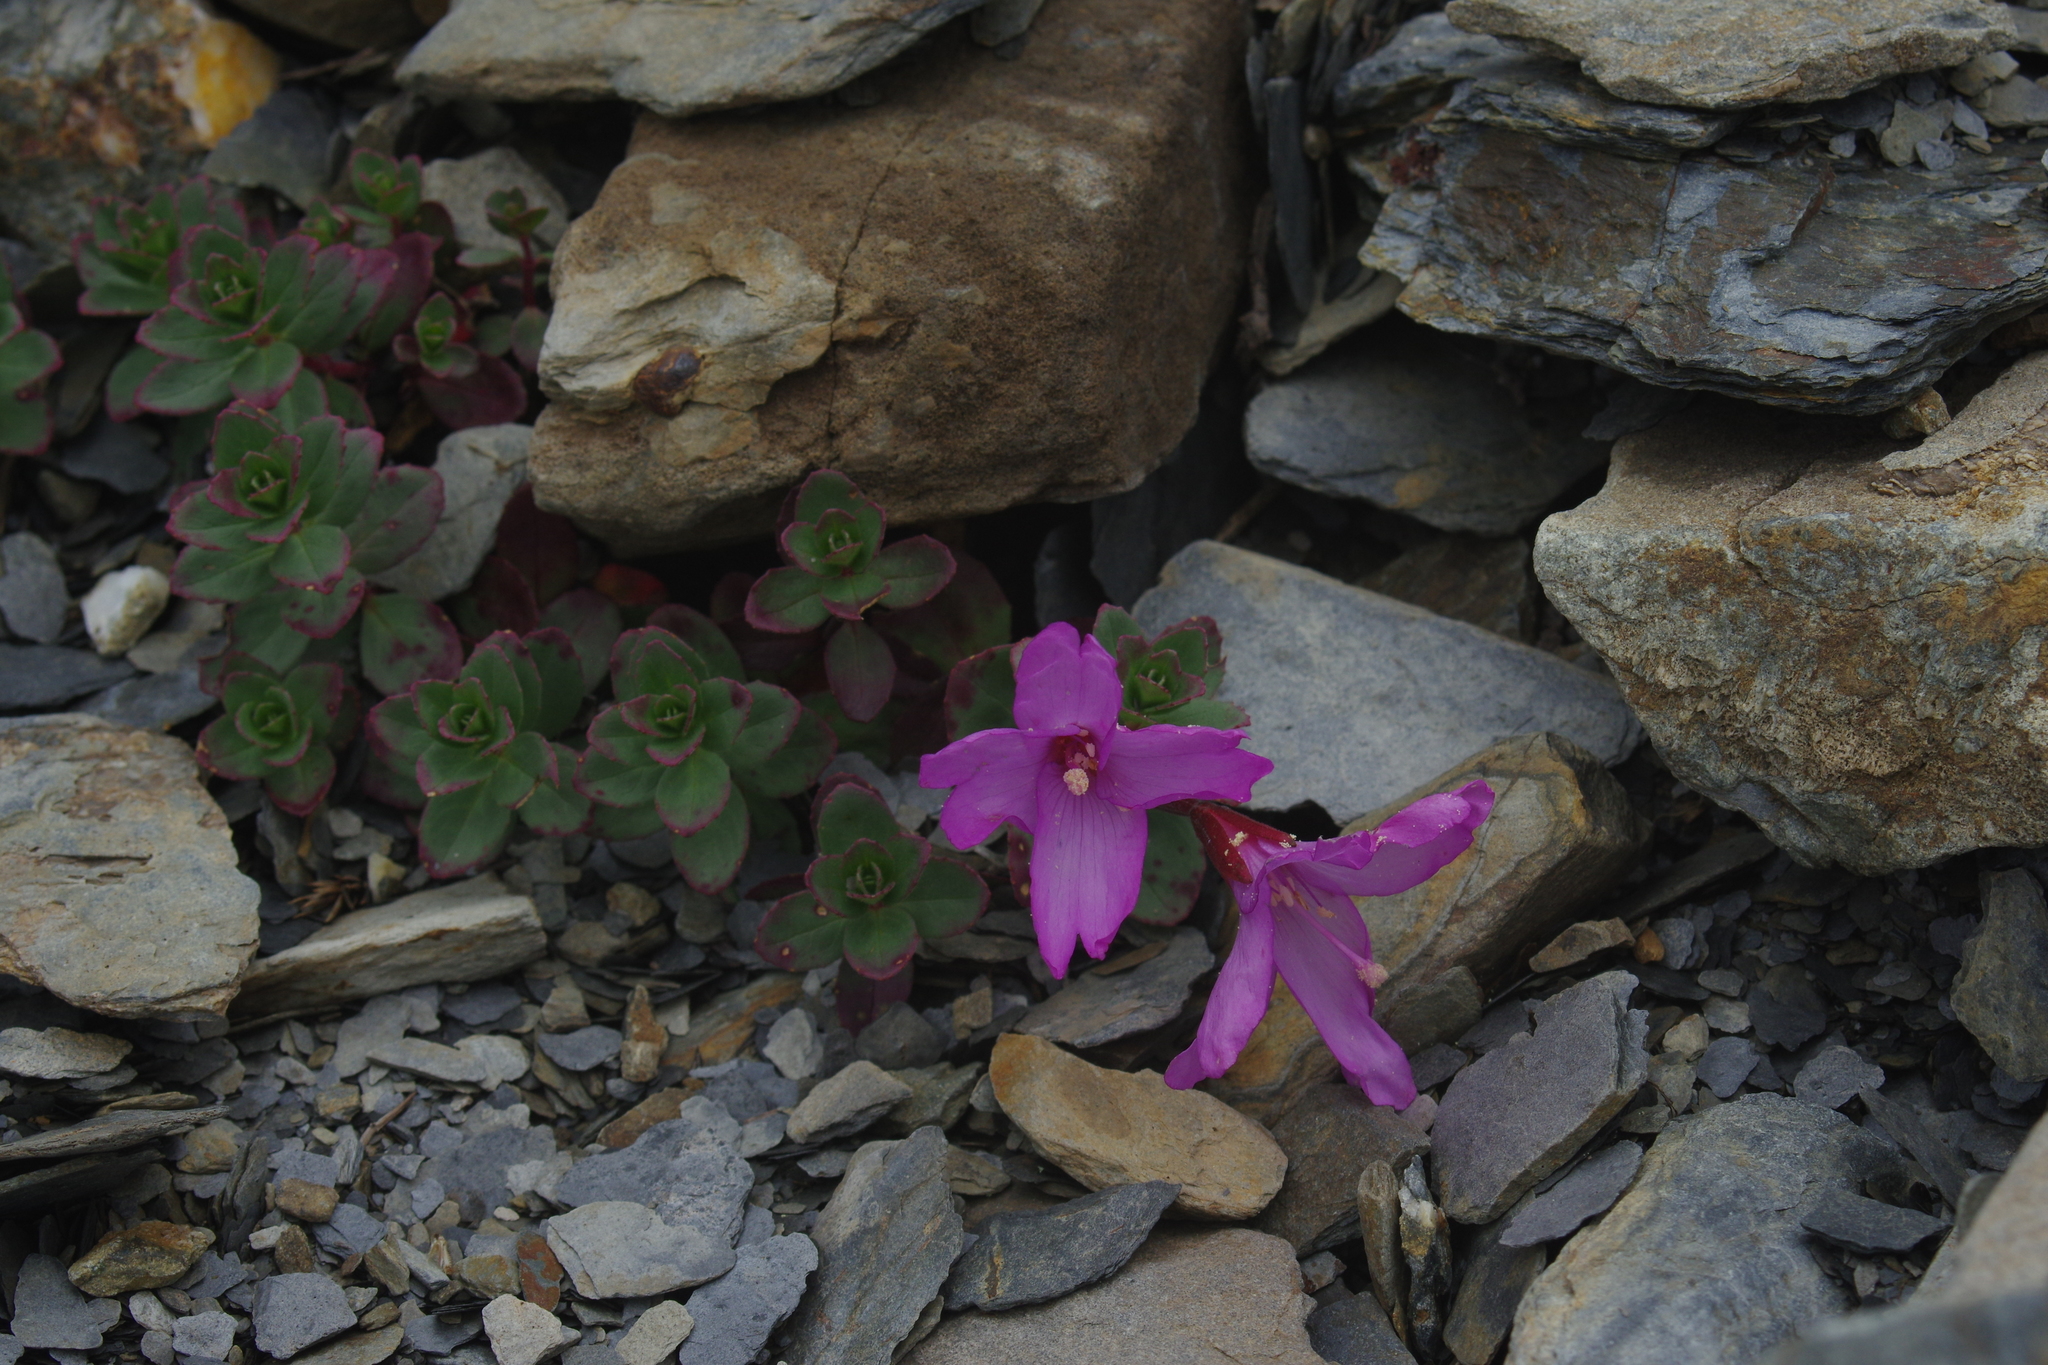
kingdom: Plantae
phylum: Tracheophyta
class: Magnoliopsida
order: Myrtales
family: Onagraceae
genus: Epilobium
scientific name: Epilobium nankotaizanense
